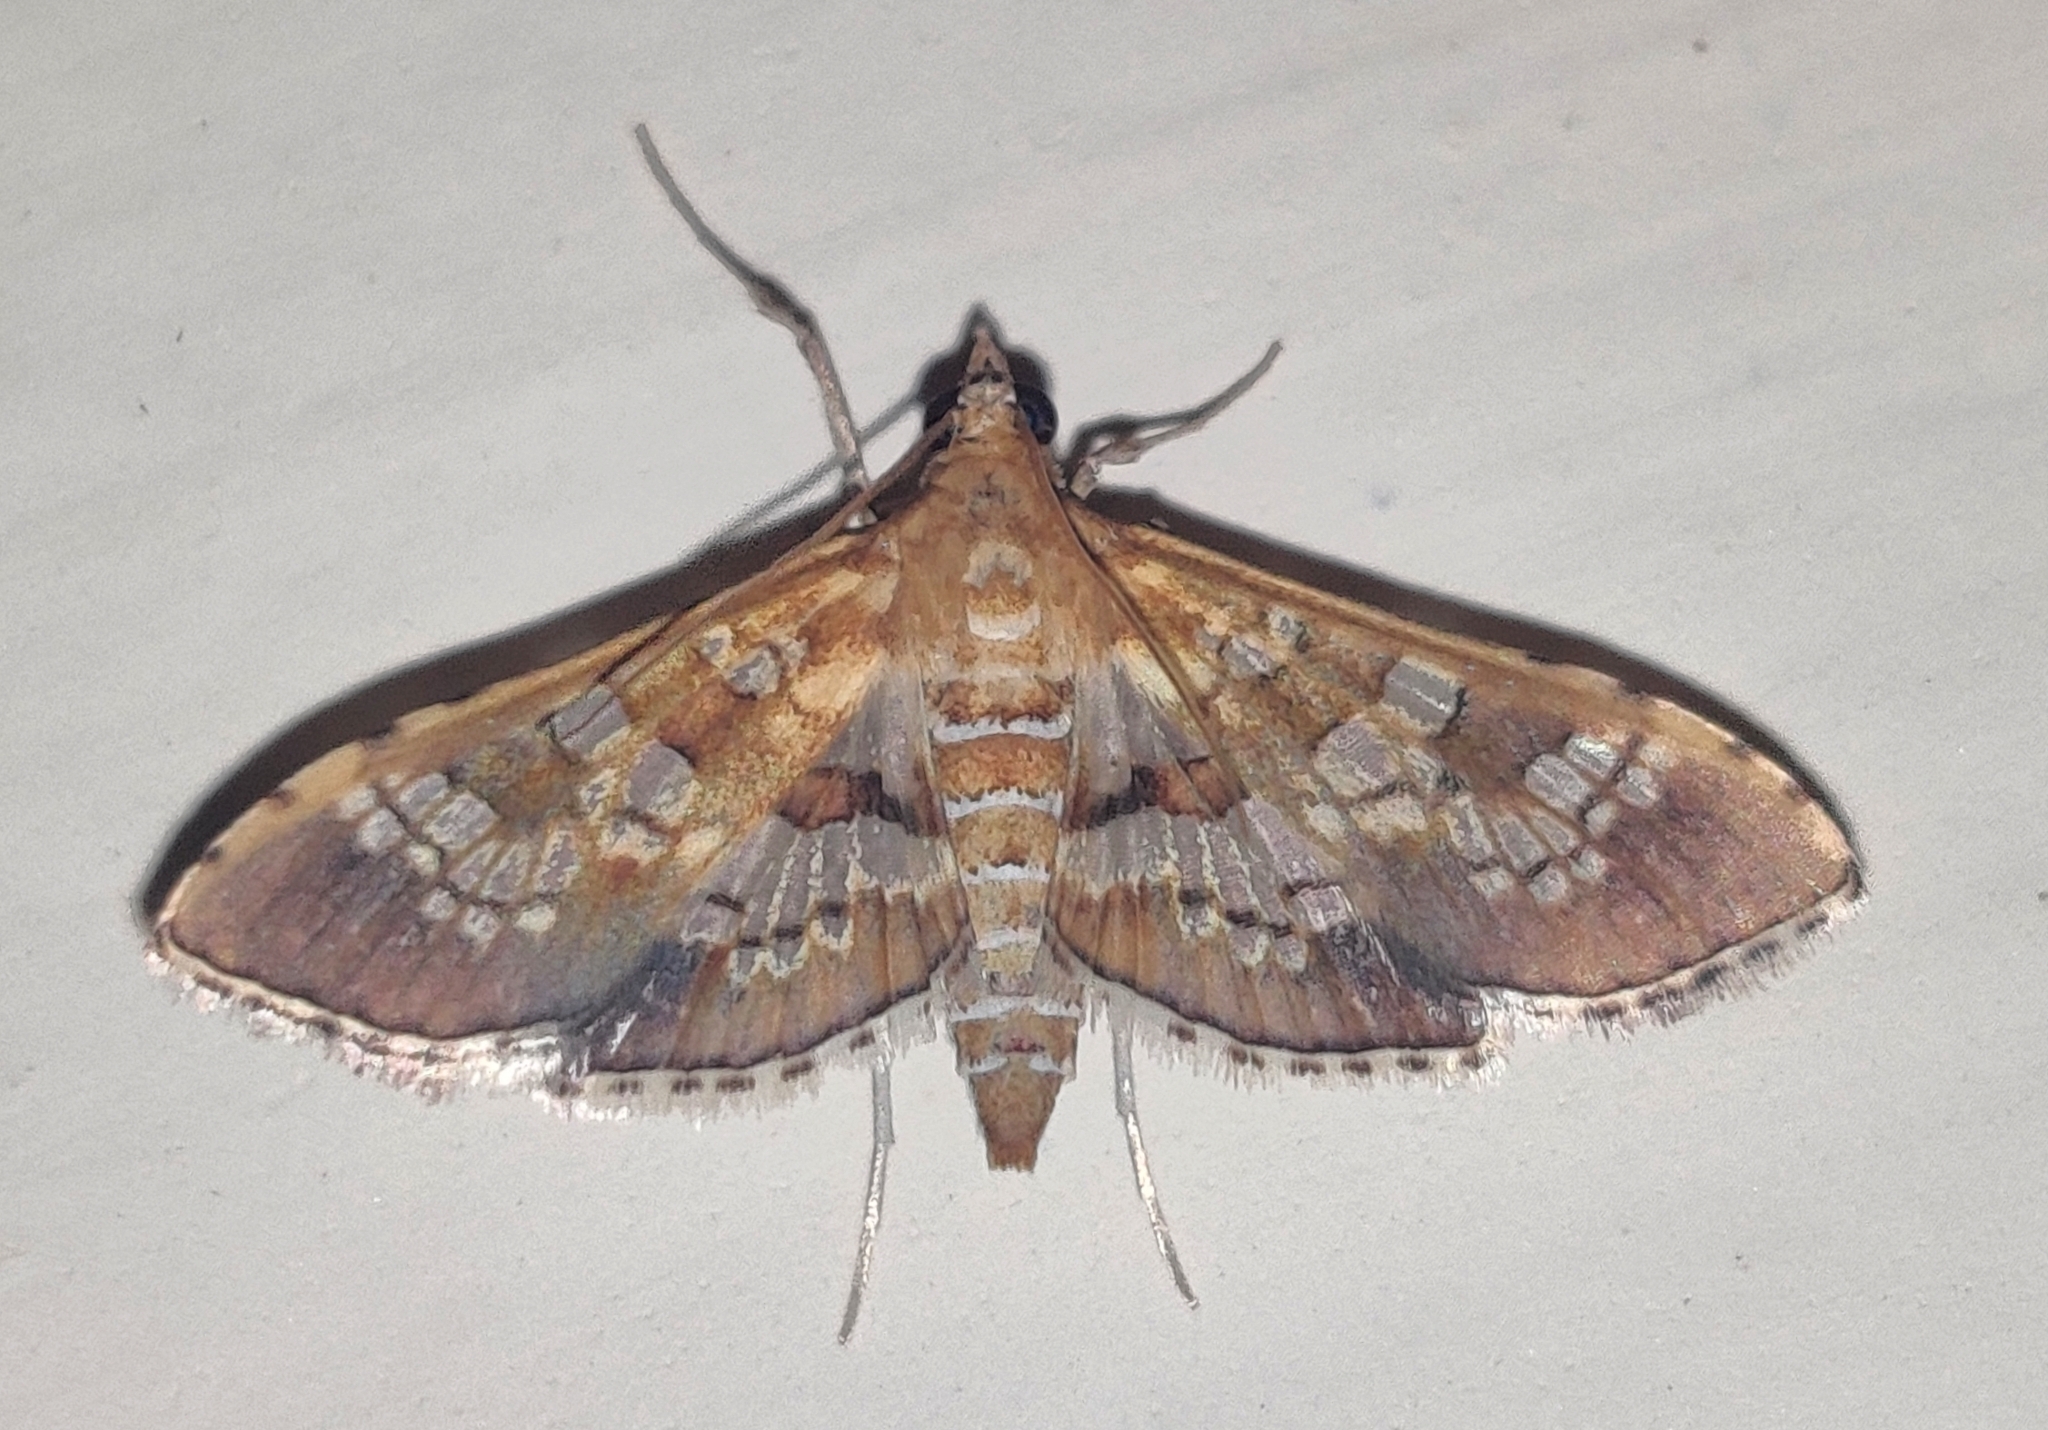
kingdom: Animalia
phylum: Arthropoda
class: Insecta
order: Lepidoptera
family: Crambidae
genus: Sameodes
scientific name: Sameodes cancellalis
